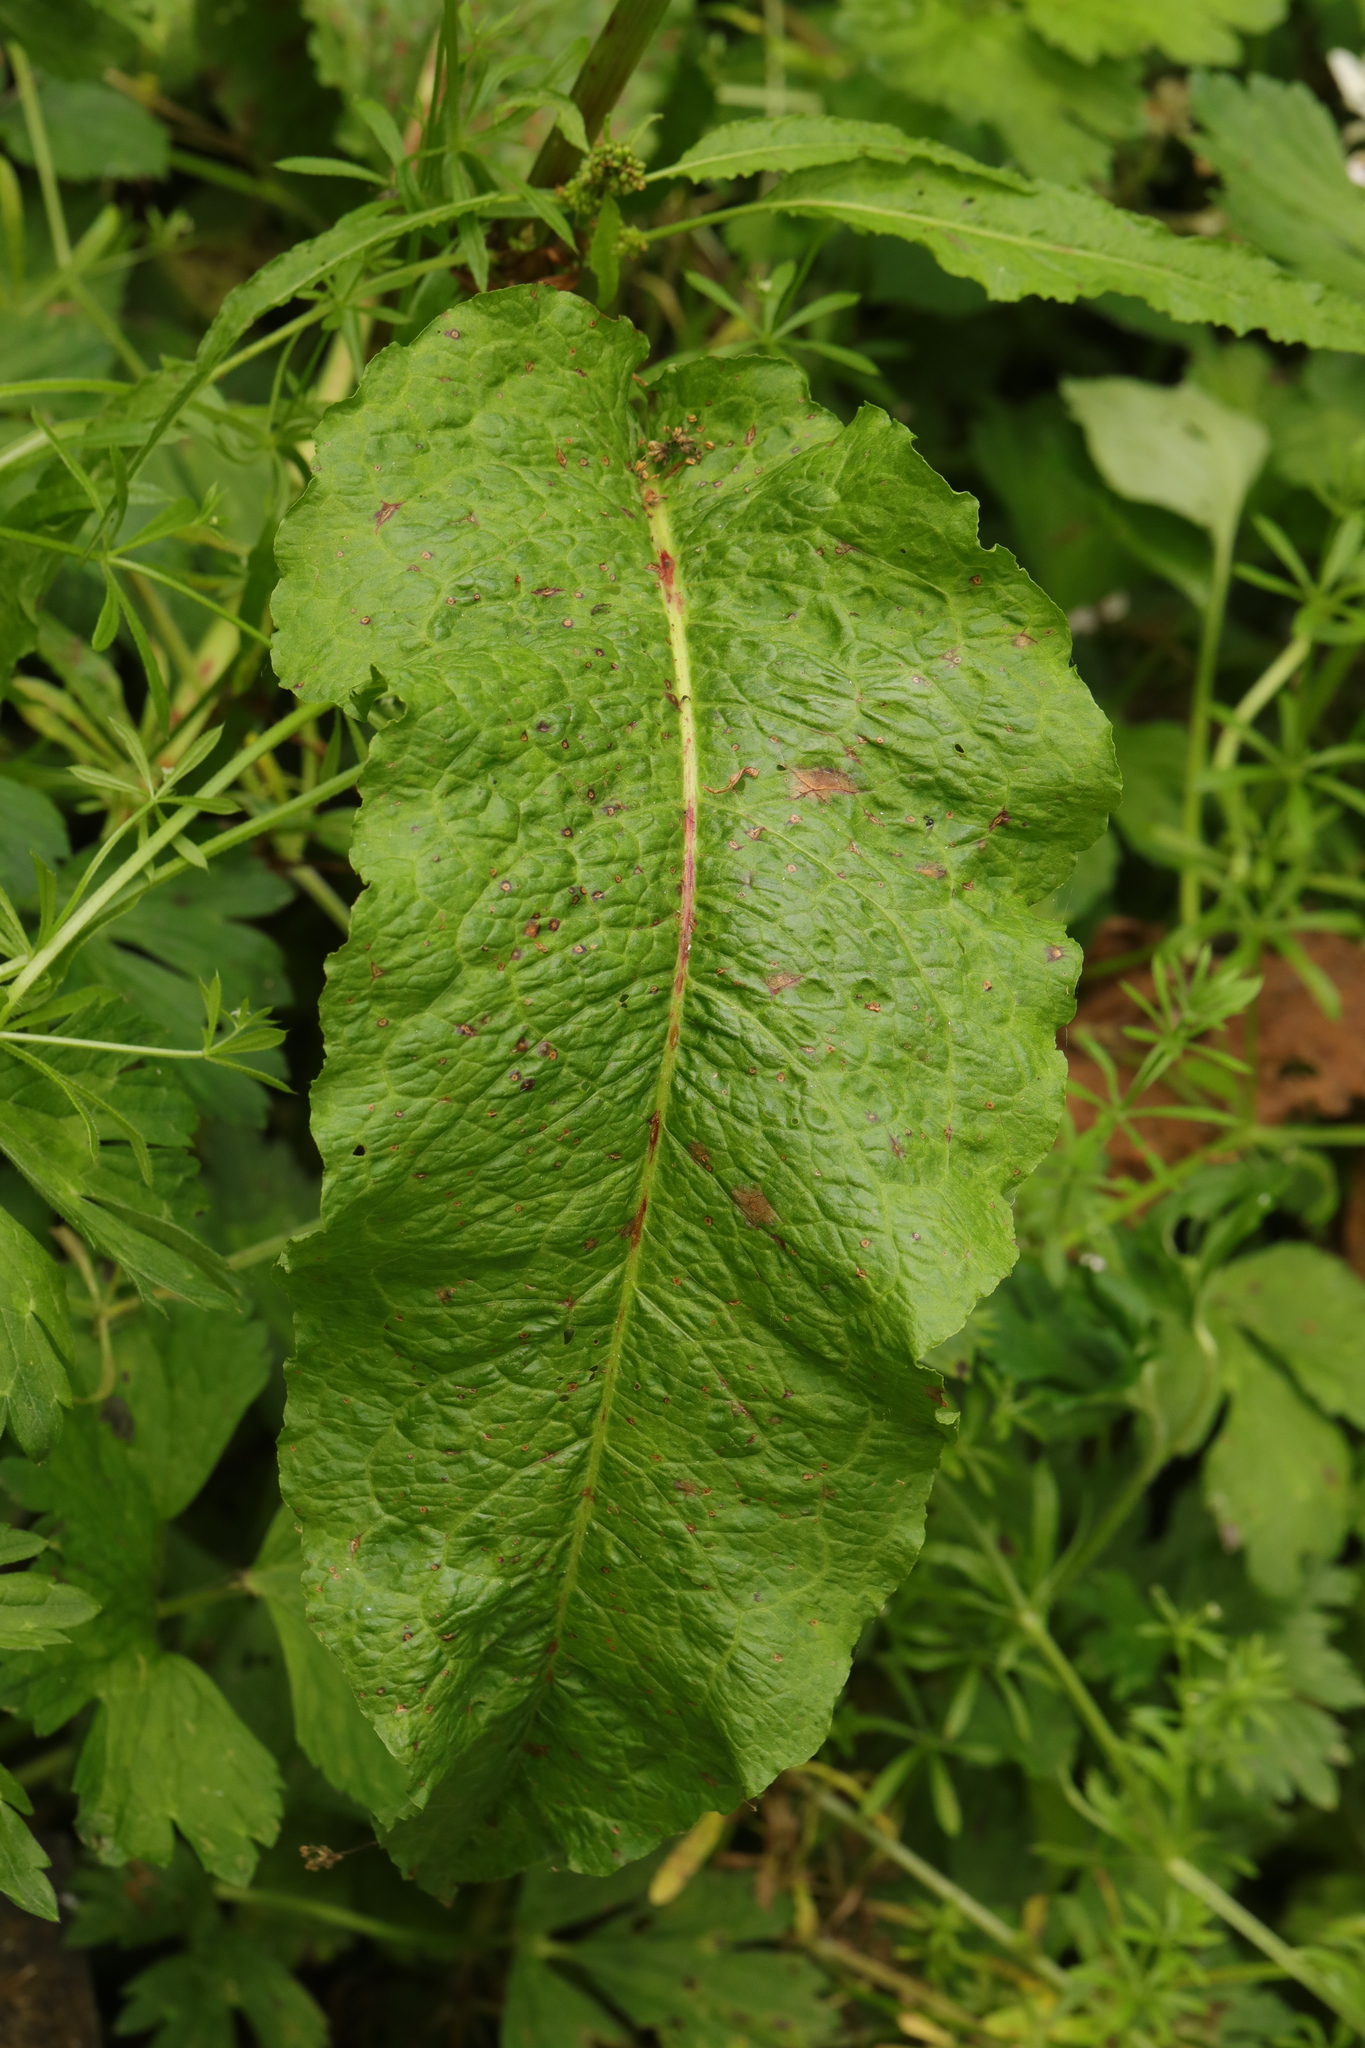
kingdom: Plantae
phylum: Tracheophyta
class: Magnoliopsida
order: Caryophyllales
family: Polygonaceae
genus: Rumex
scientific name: Rumex obtusifolius
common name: Bitter dock
